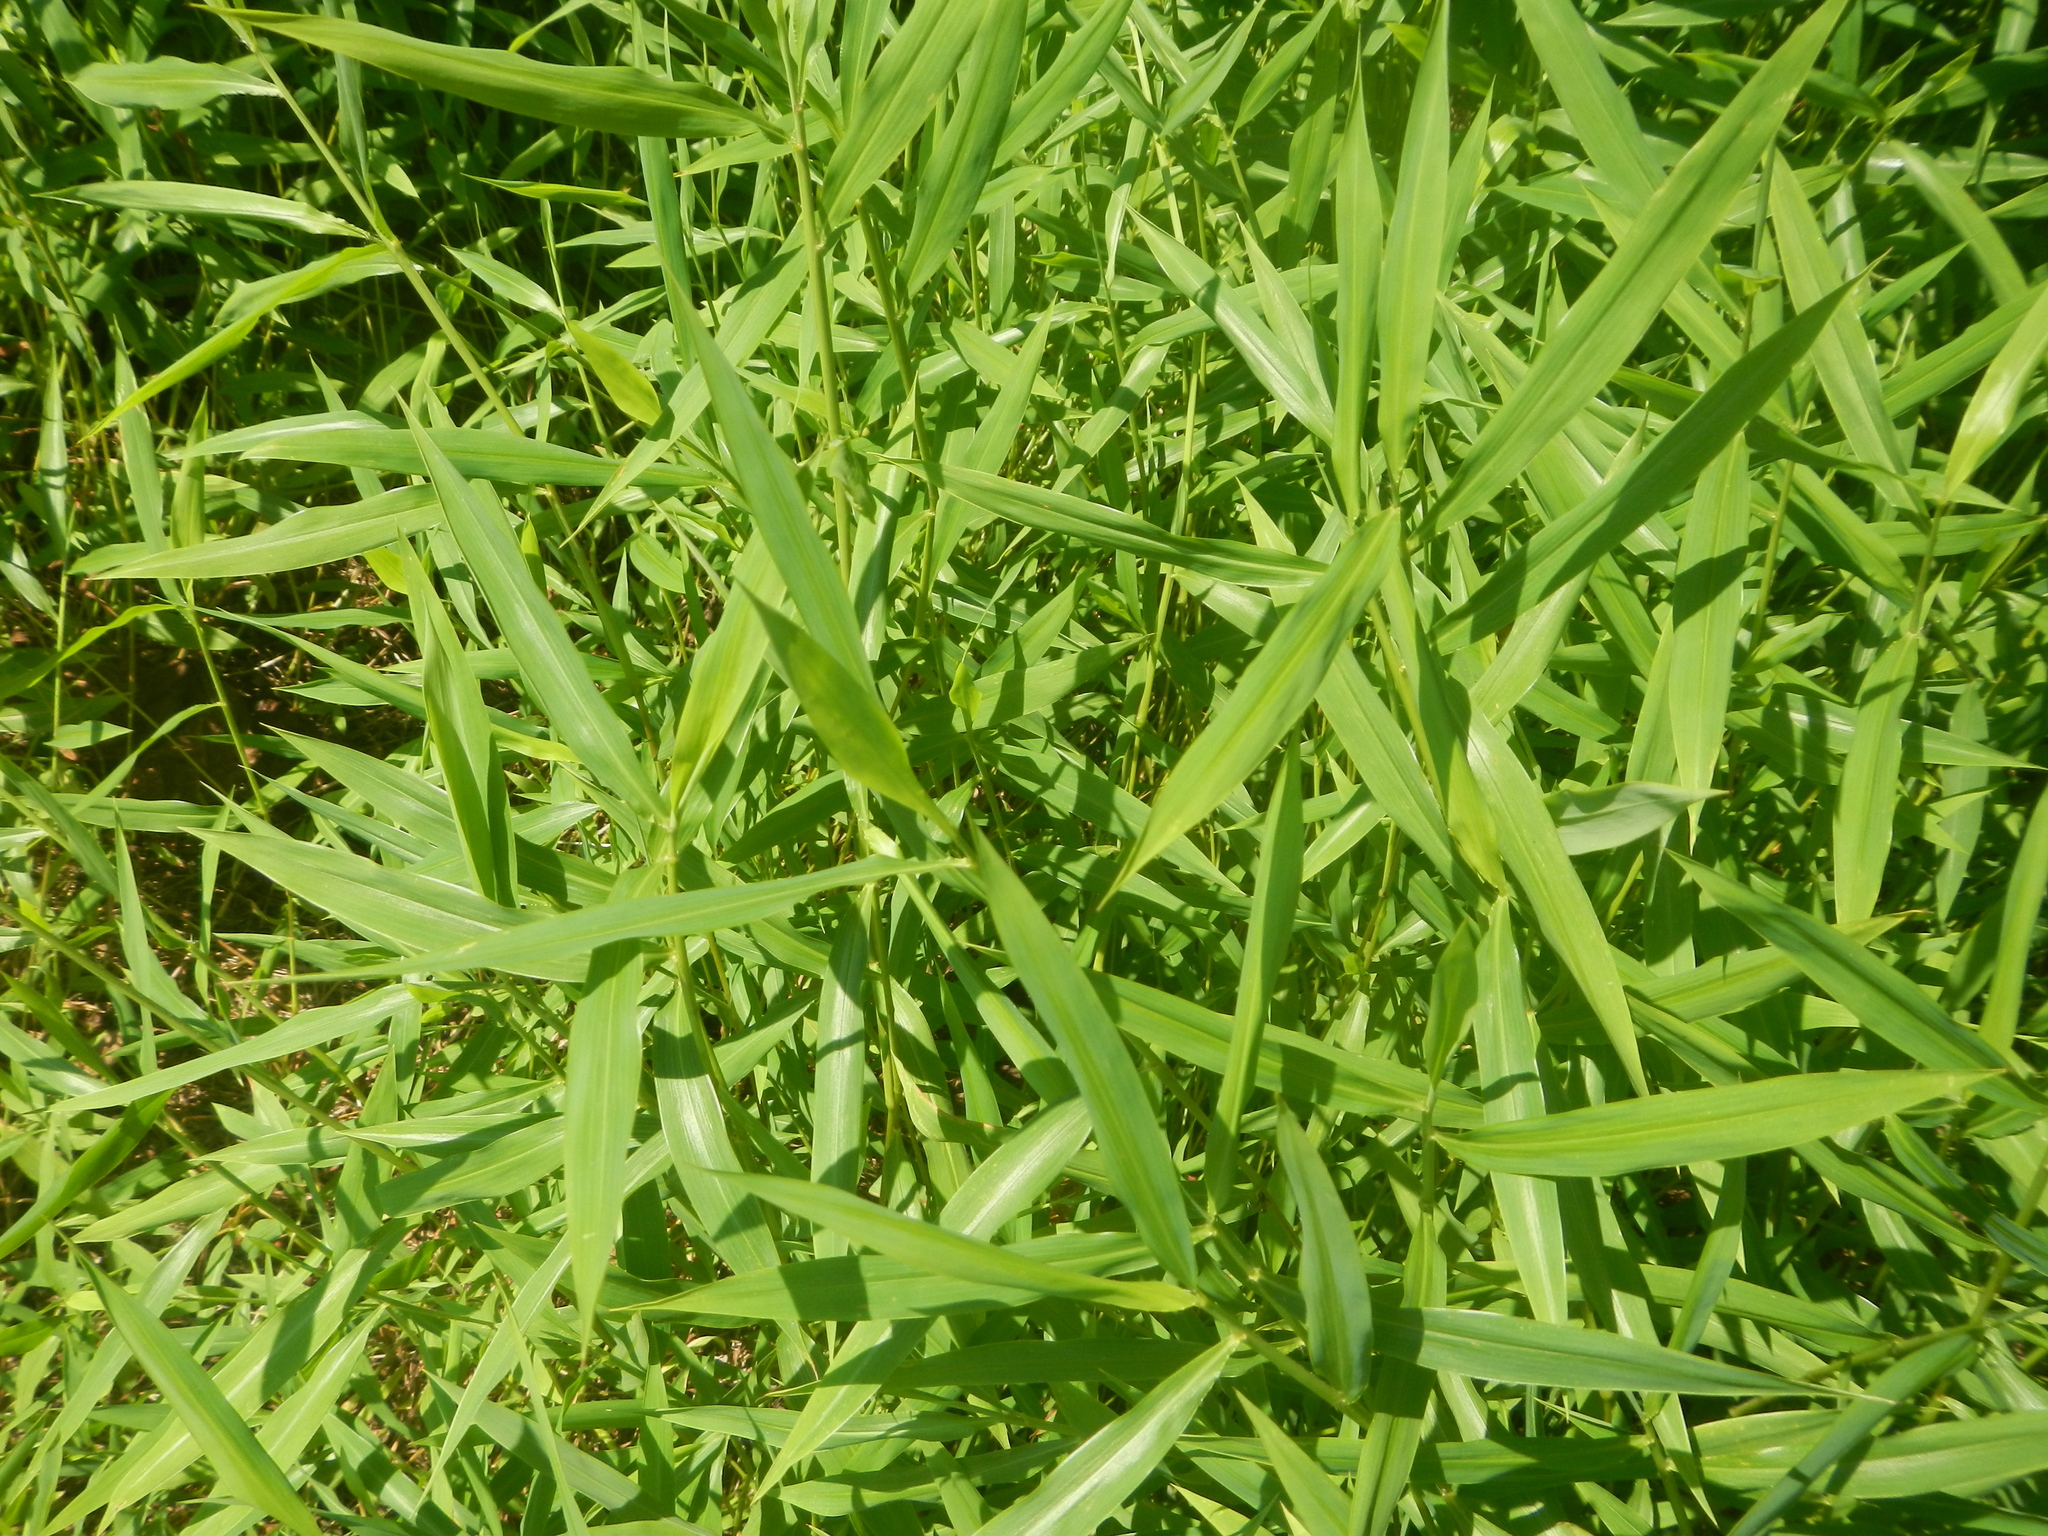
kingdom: Plantae
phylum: Tracheophyta
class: Liliopsida
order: Poales
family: Poaceae
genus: Microstegium
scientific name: Microstegium vimineum
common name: Japanese stiltgrass
